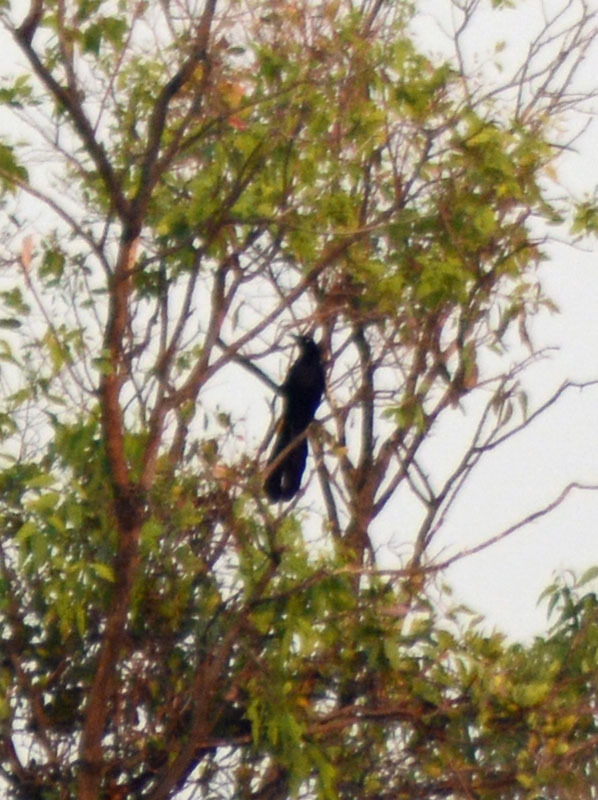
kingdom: Animalia
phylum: Chordata
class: Aves
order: Passeriformes
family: Icteridae
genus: Quiscalus
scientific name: Quiscalus mexicanus
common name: Great-tailed grackle
